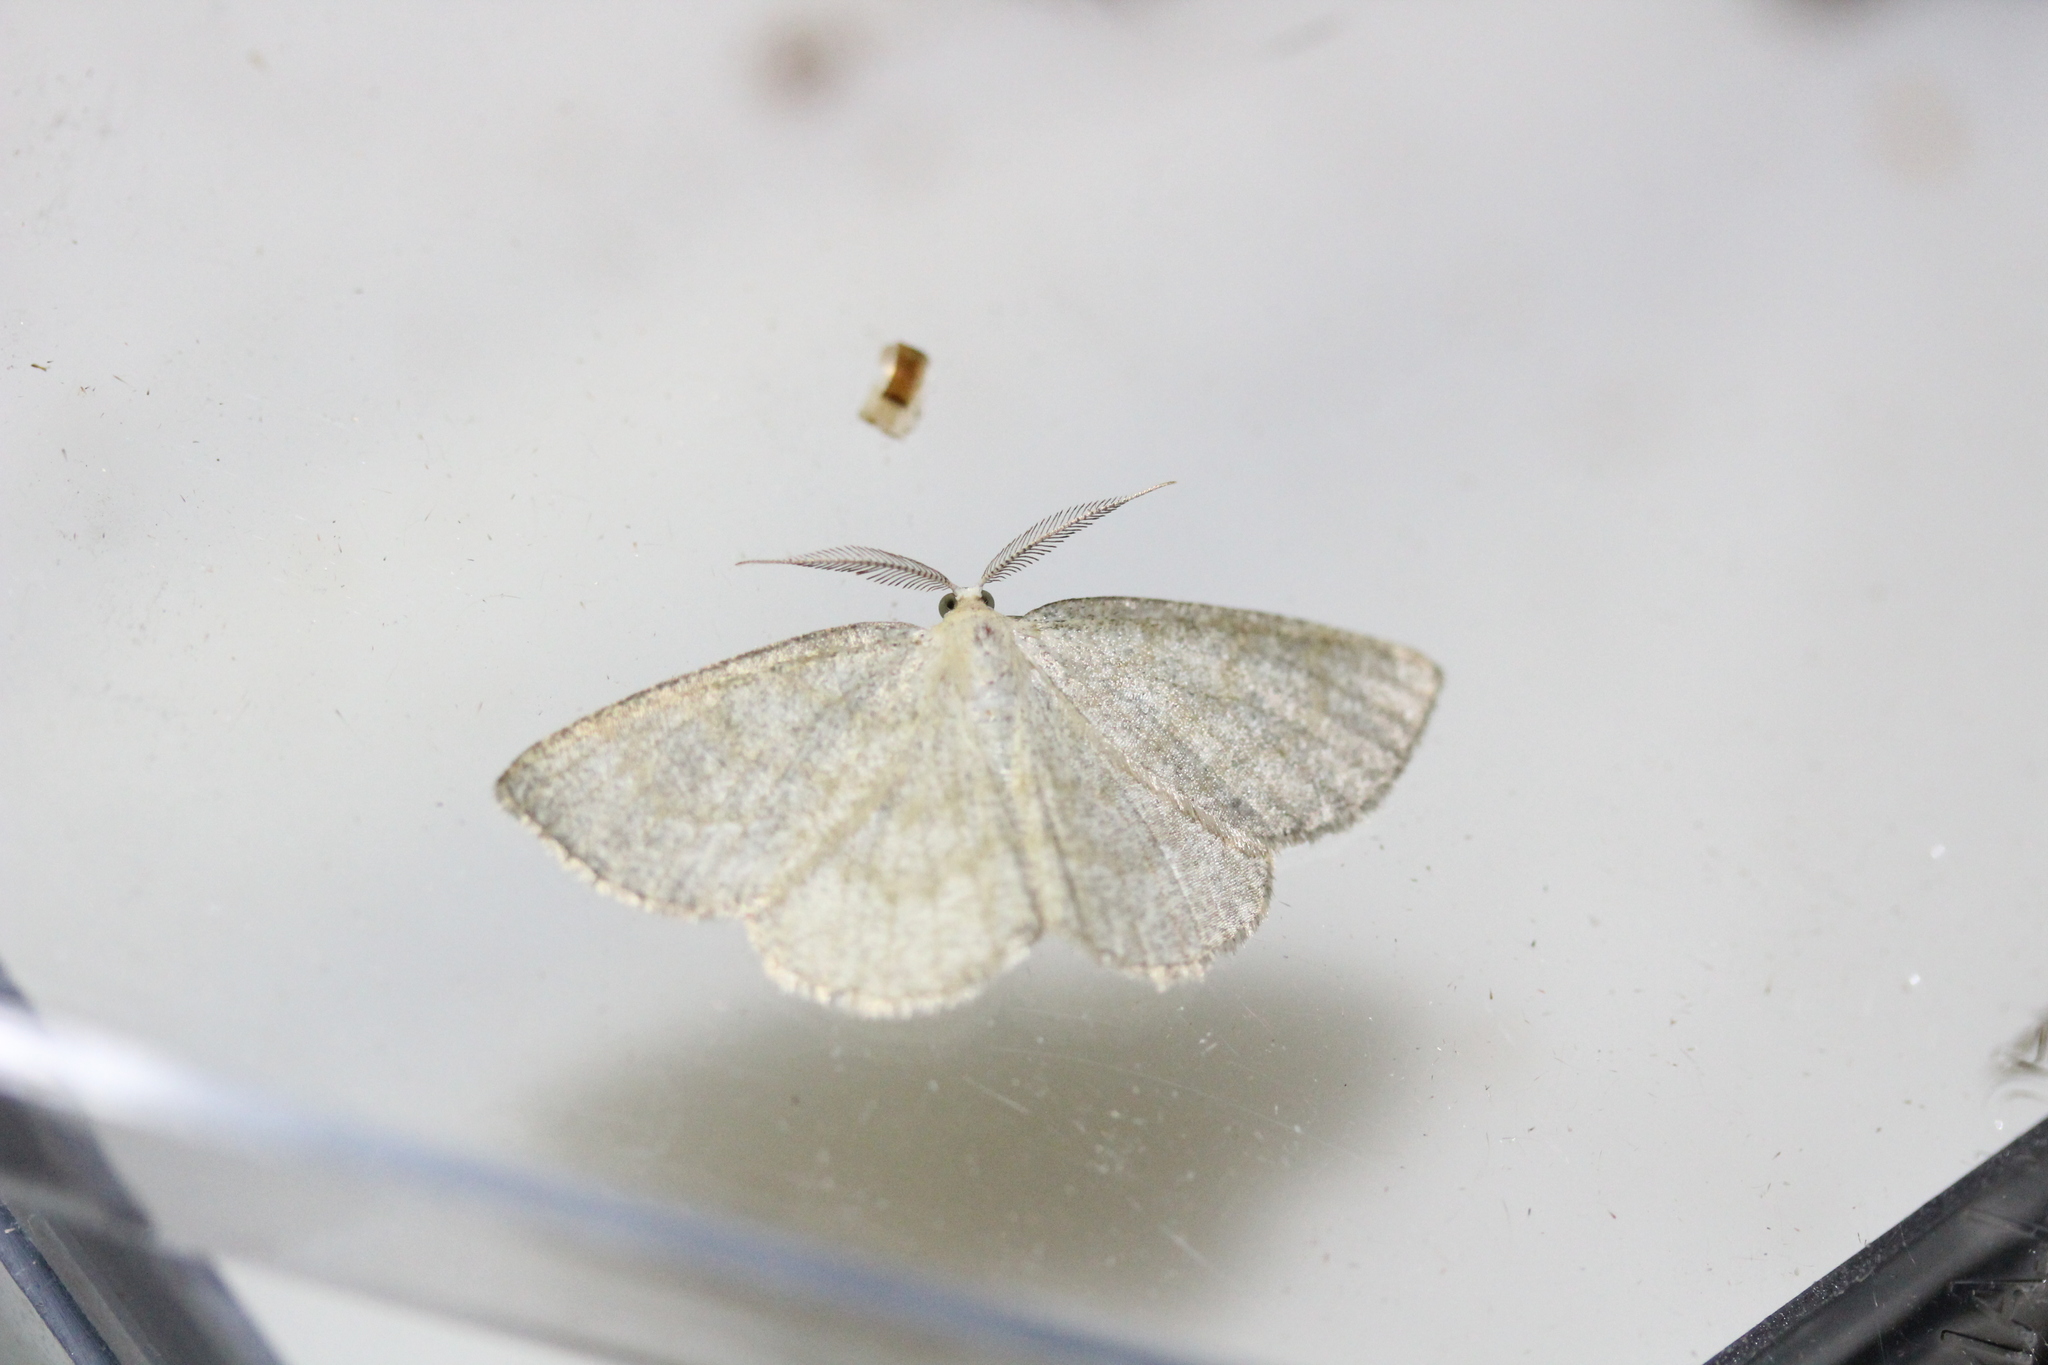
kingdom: Animalia
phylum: Arthropoda
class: Insecta
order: Lepidoptera
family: Geometridae
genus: Cabera
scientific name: Cabera exanthemata
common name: Common wave
